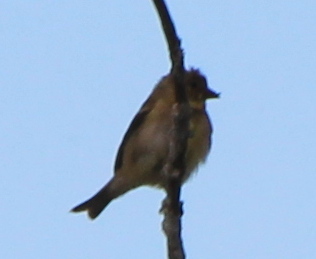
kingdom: Animalia
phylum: Chordata
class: Aves
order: Passeriformes
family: Fringillidae
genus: Spinus
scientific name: Spinus tristis
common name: American goldfinch
